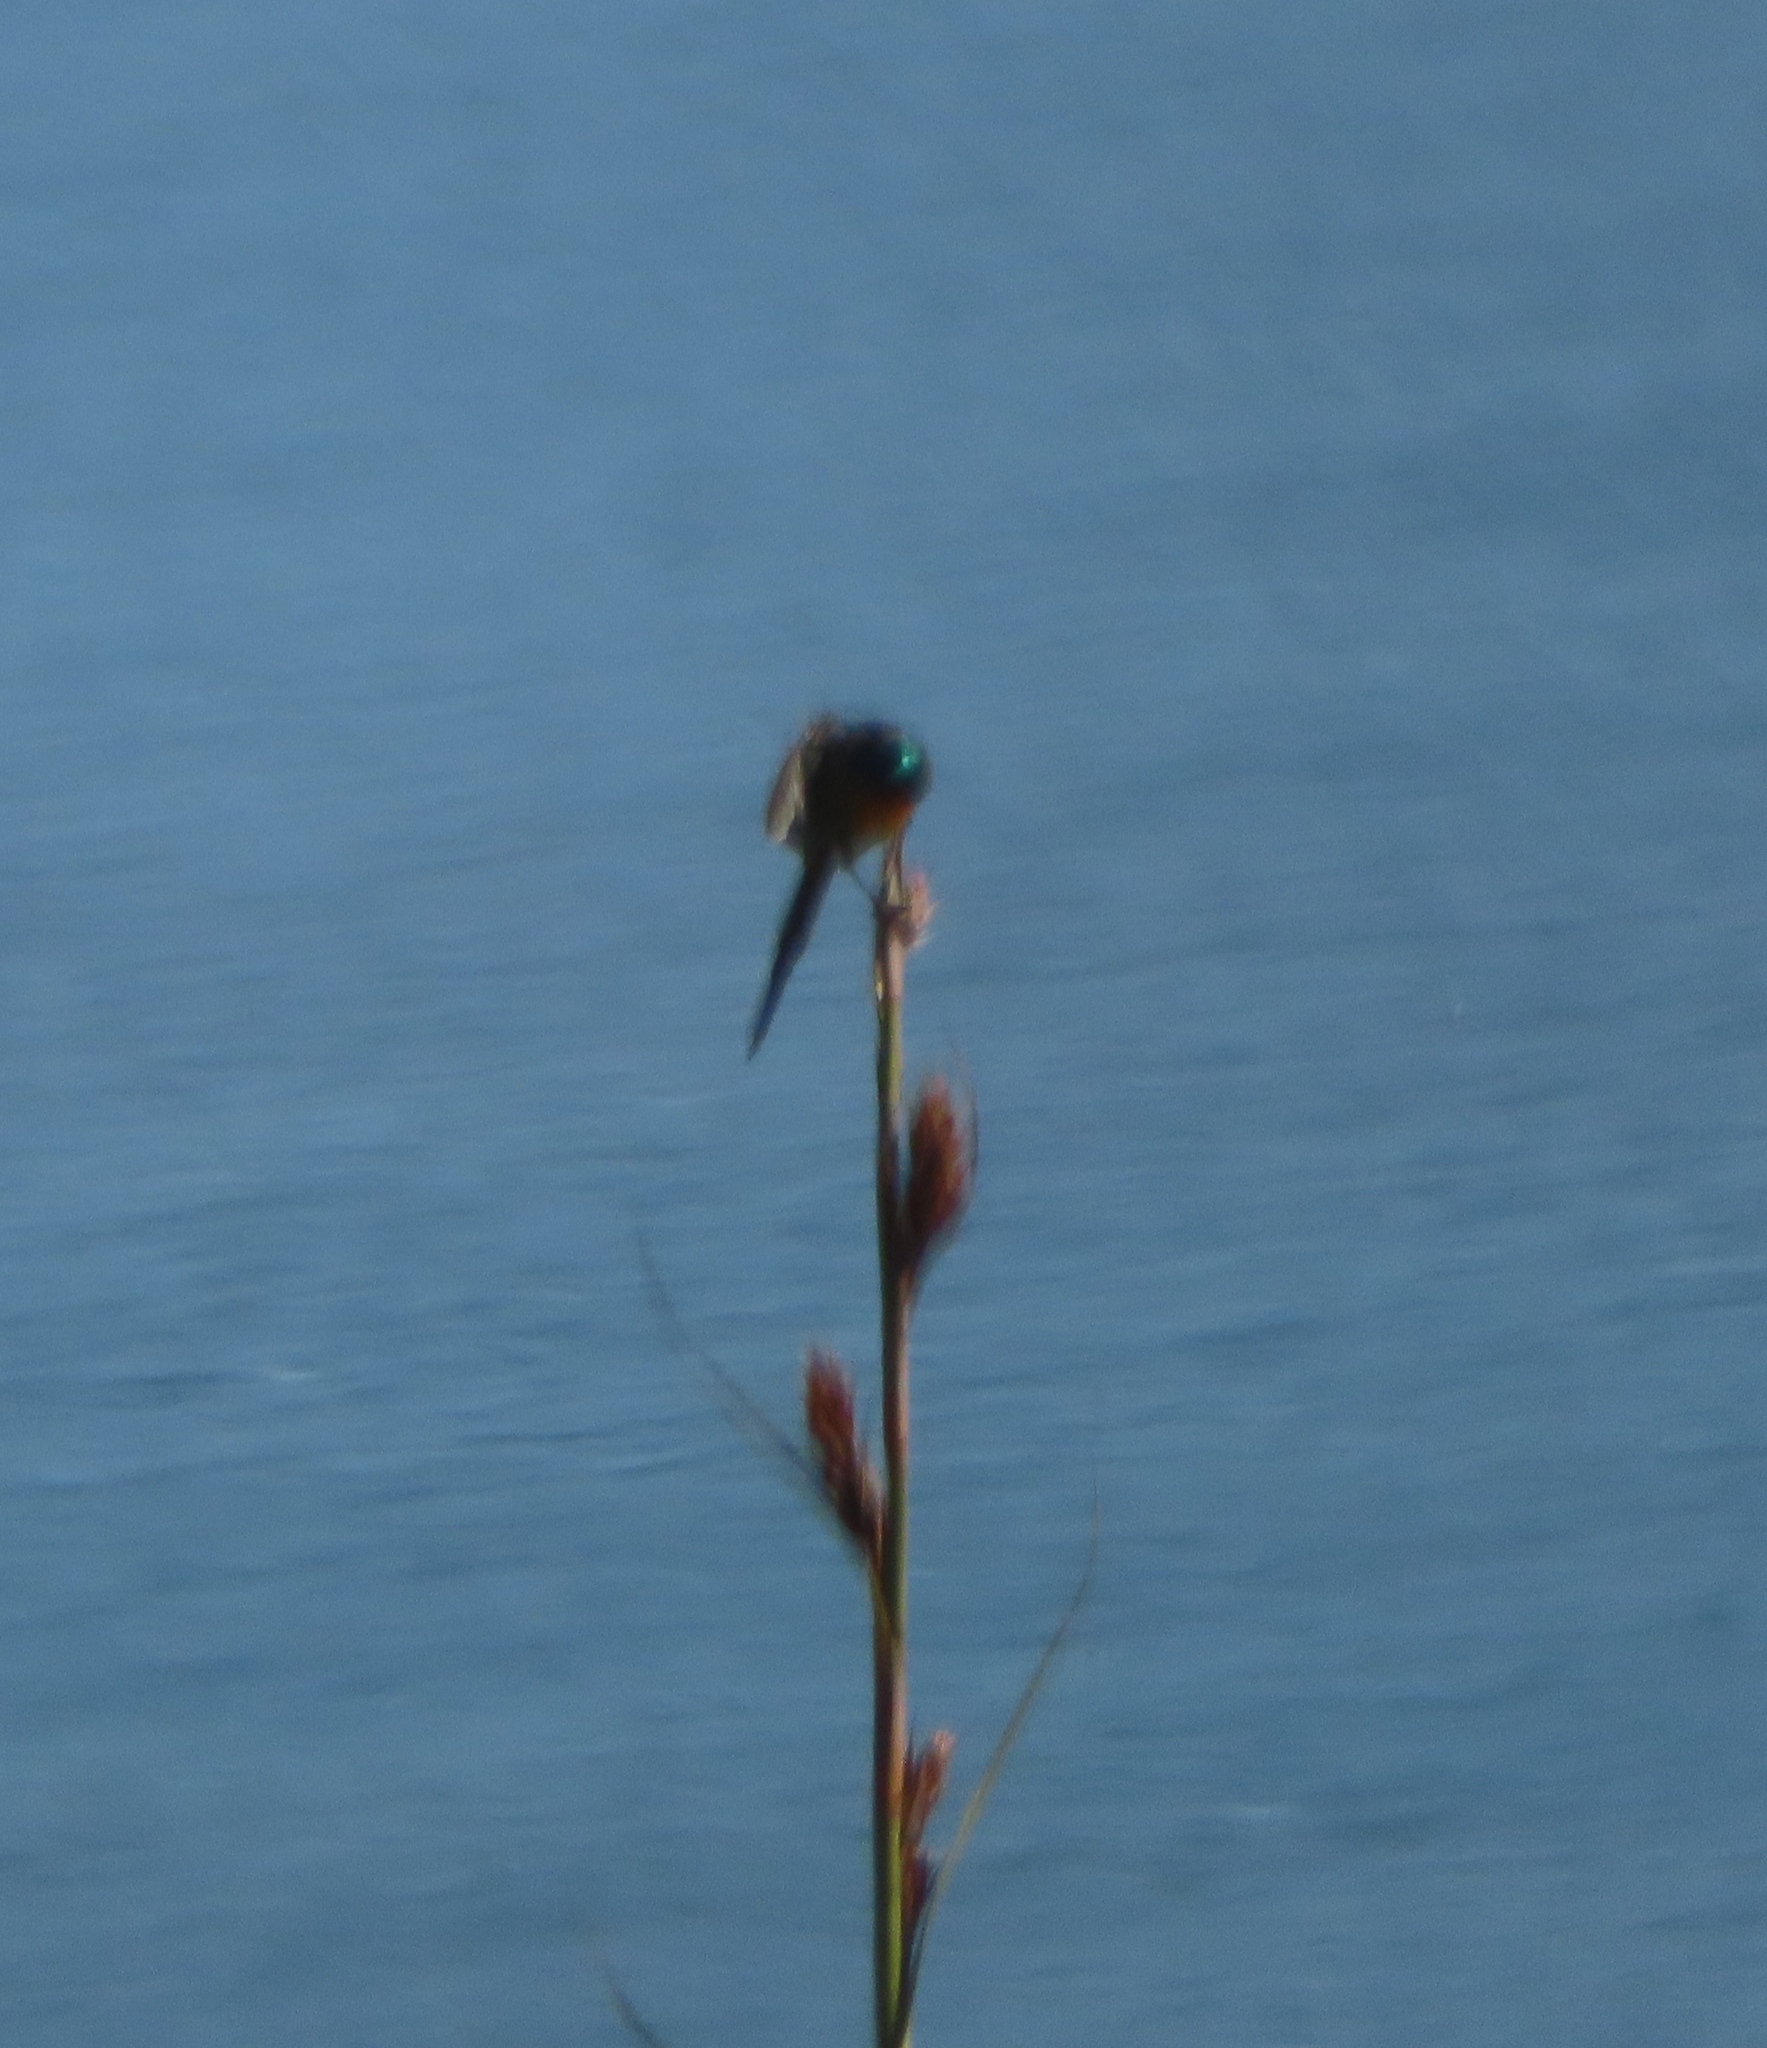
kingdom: Animalia
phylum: Chordata
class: Aves
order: Passeriformes
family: Nectariniidae
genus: Anthobaphes
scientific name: Anthobaphes violacea
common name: Orange-breasted sunbird
